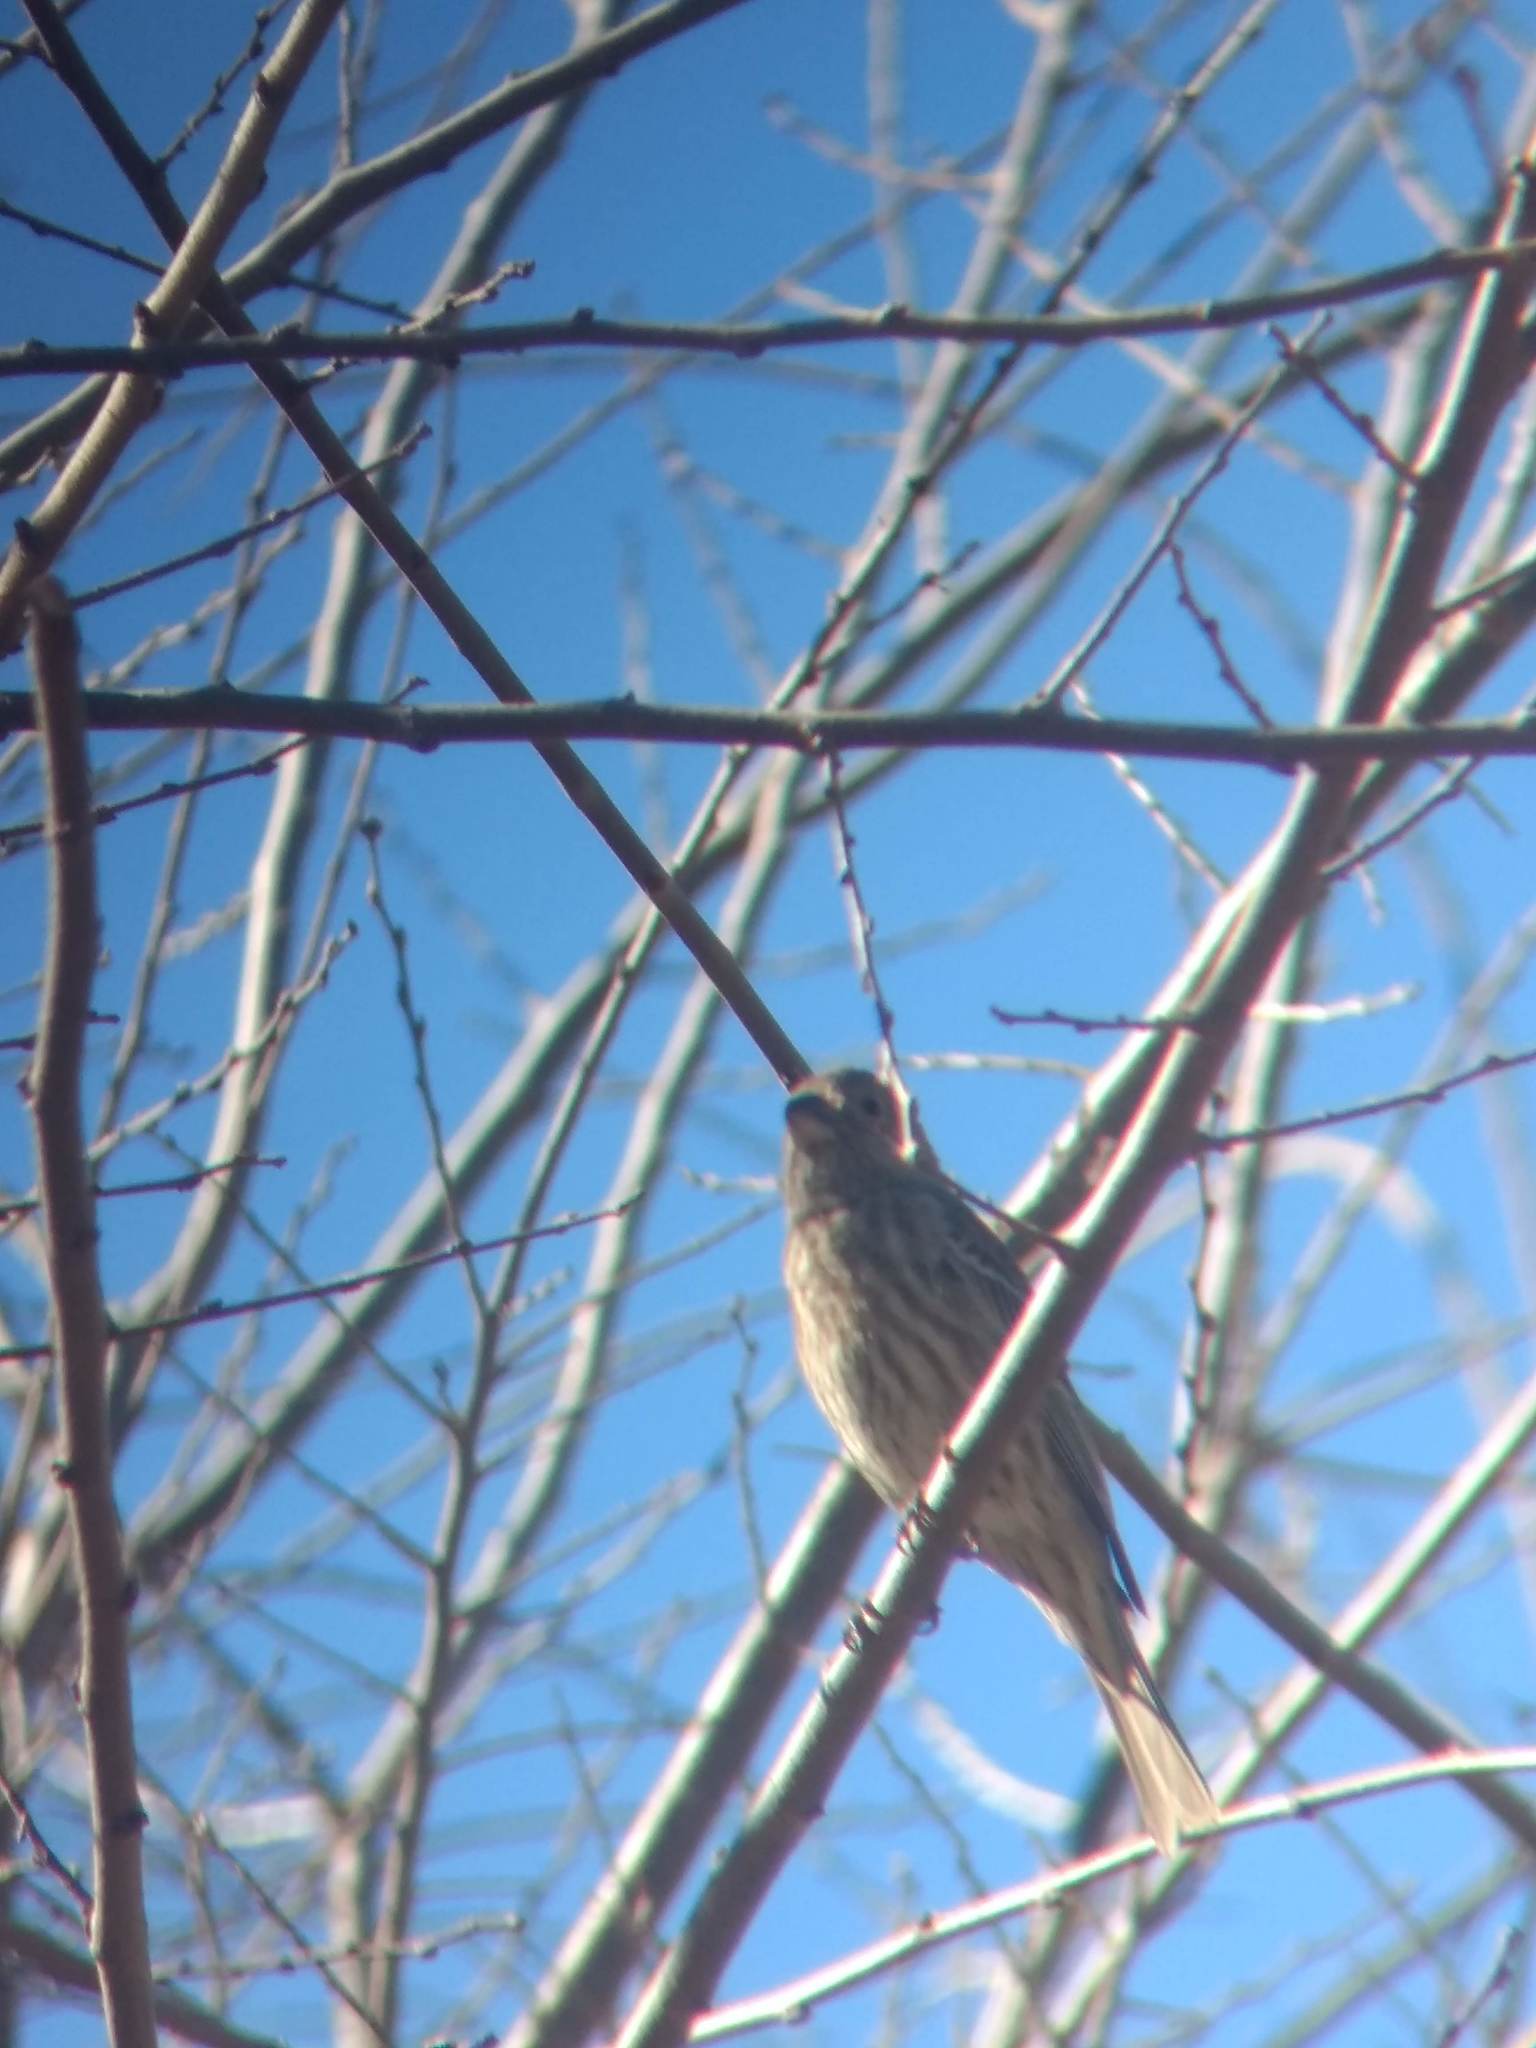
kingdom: Animalia
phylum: Chordata
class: Aves
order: Passeriformes
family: Fringillidae
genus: Haemorhous
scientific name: Haemorhous mexicanus
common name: House finch
